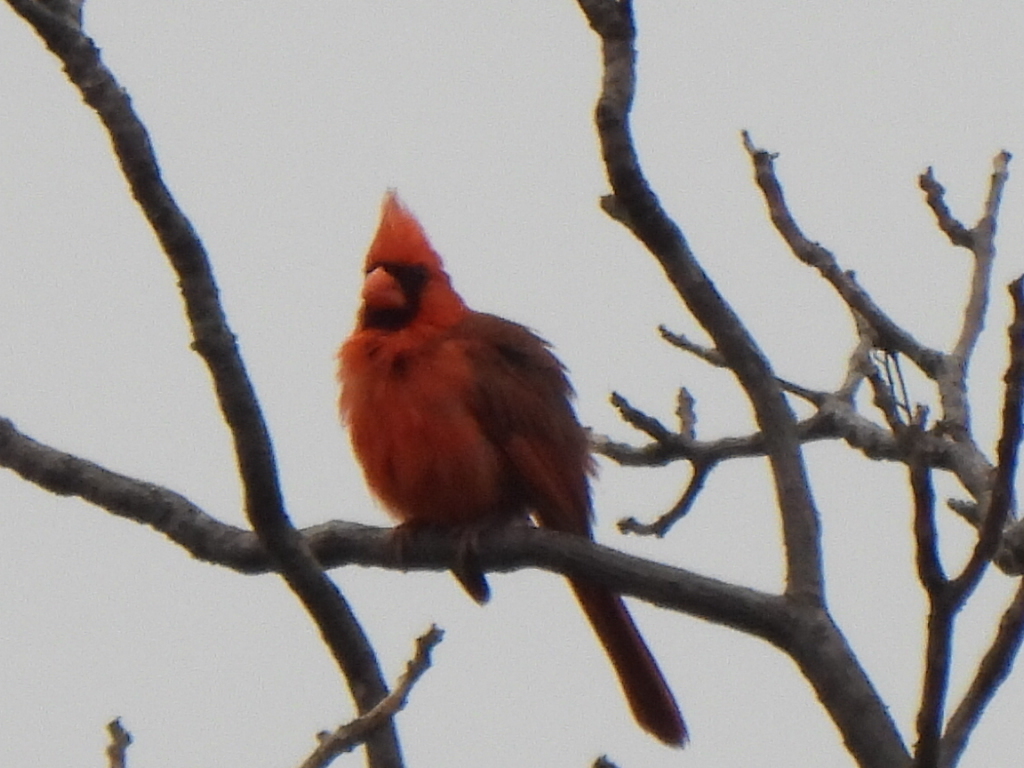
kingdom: Animalia
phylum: Chordata
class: Aves
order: Passeriformes
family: Cardinalidae
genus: Cardinalis
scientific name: Cardinalis cardinalis
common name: Northern cardinal
